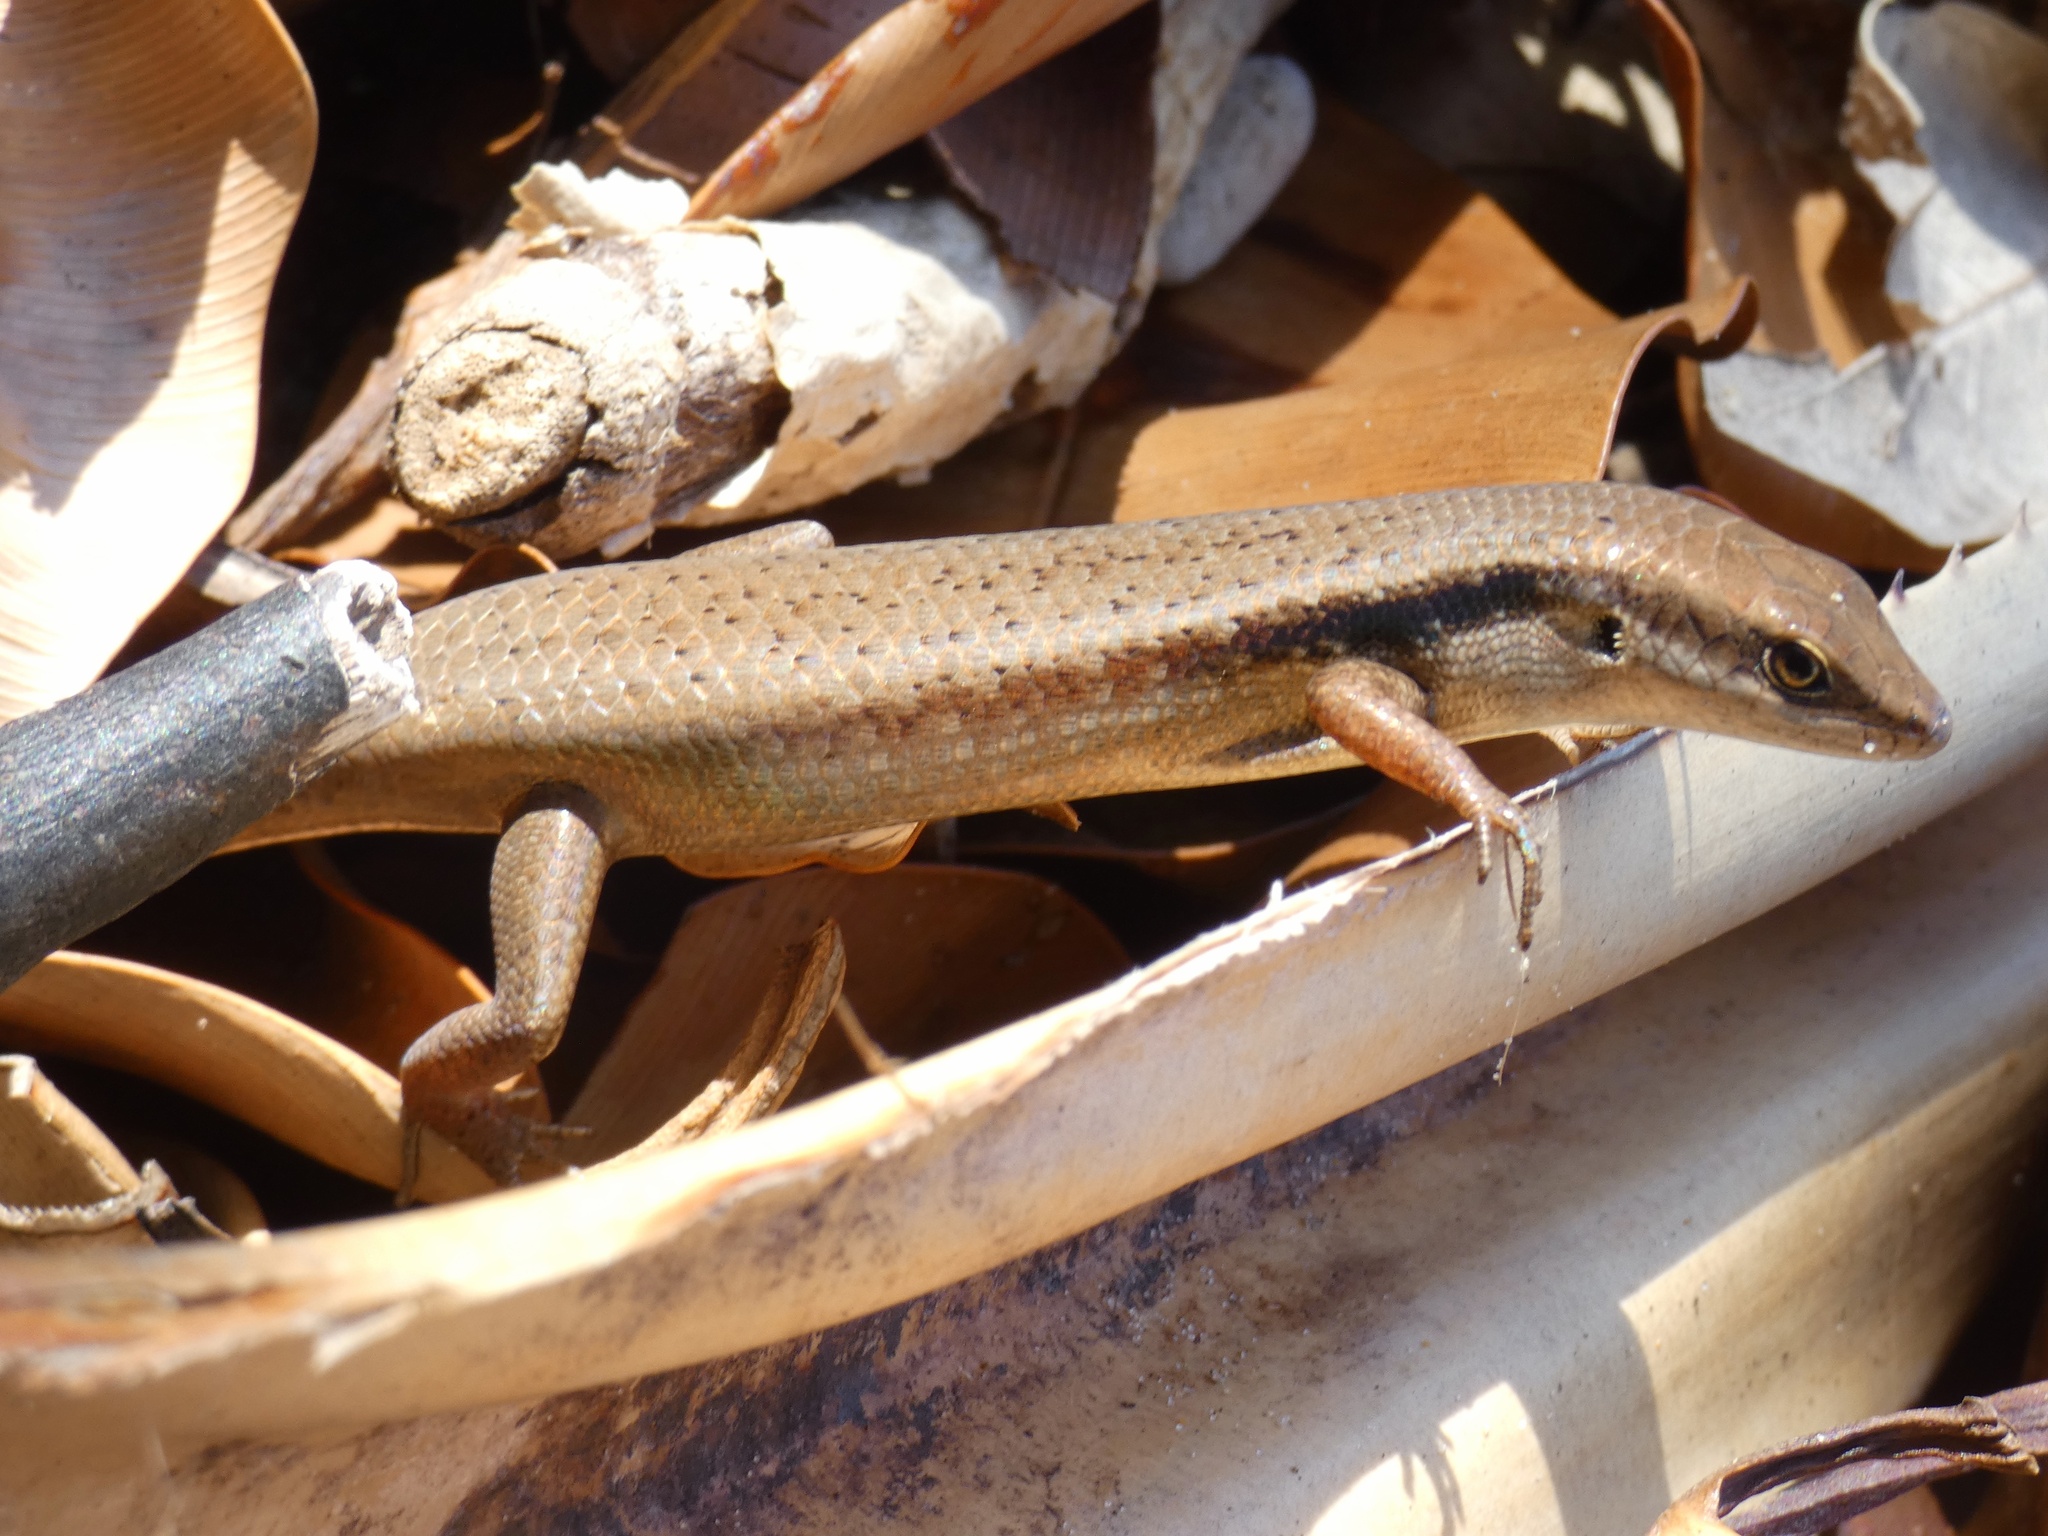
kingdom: Animalia
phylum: Chordata
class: Squamata
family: Scincidae
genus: Carlia
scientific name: Carlia longipes
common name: Closed-litter rainbow-skink
